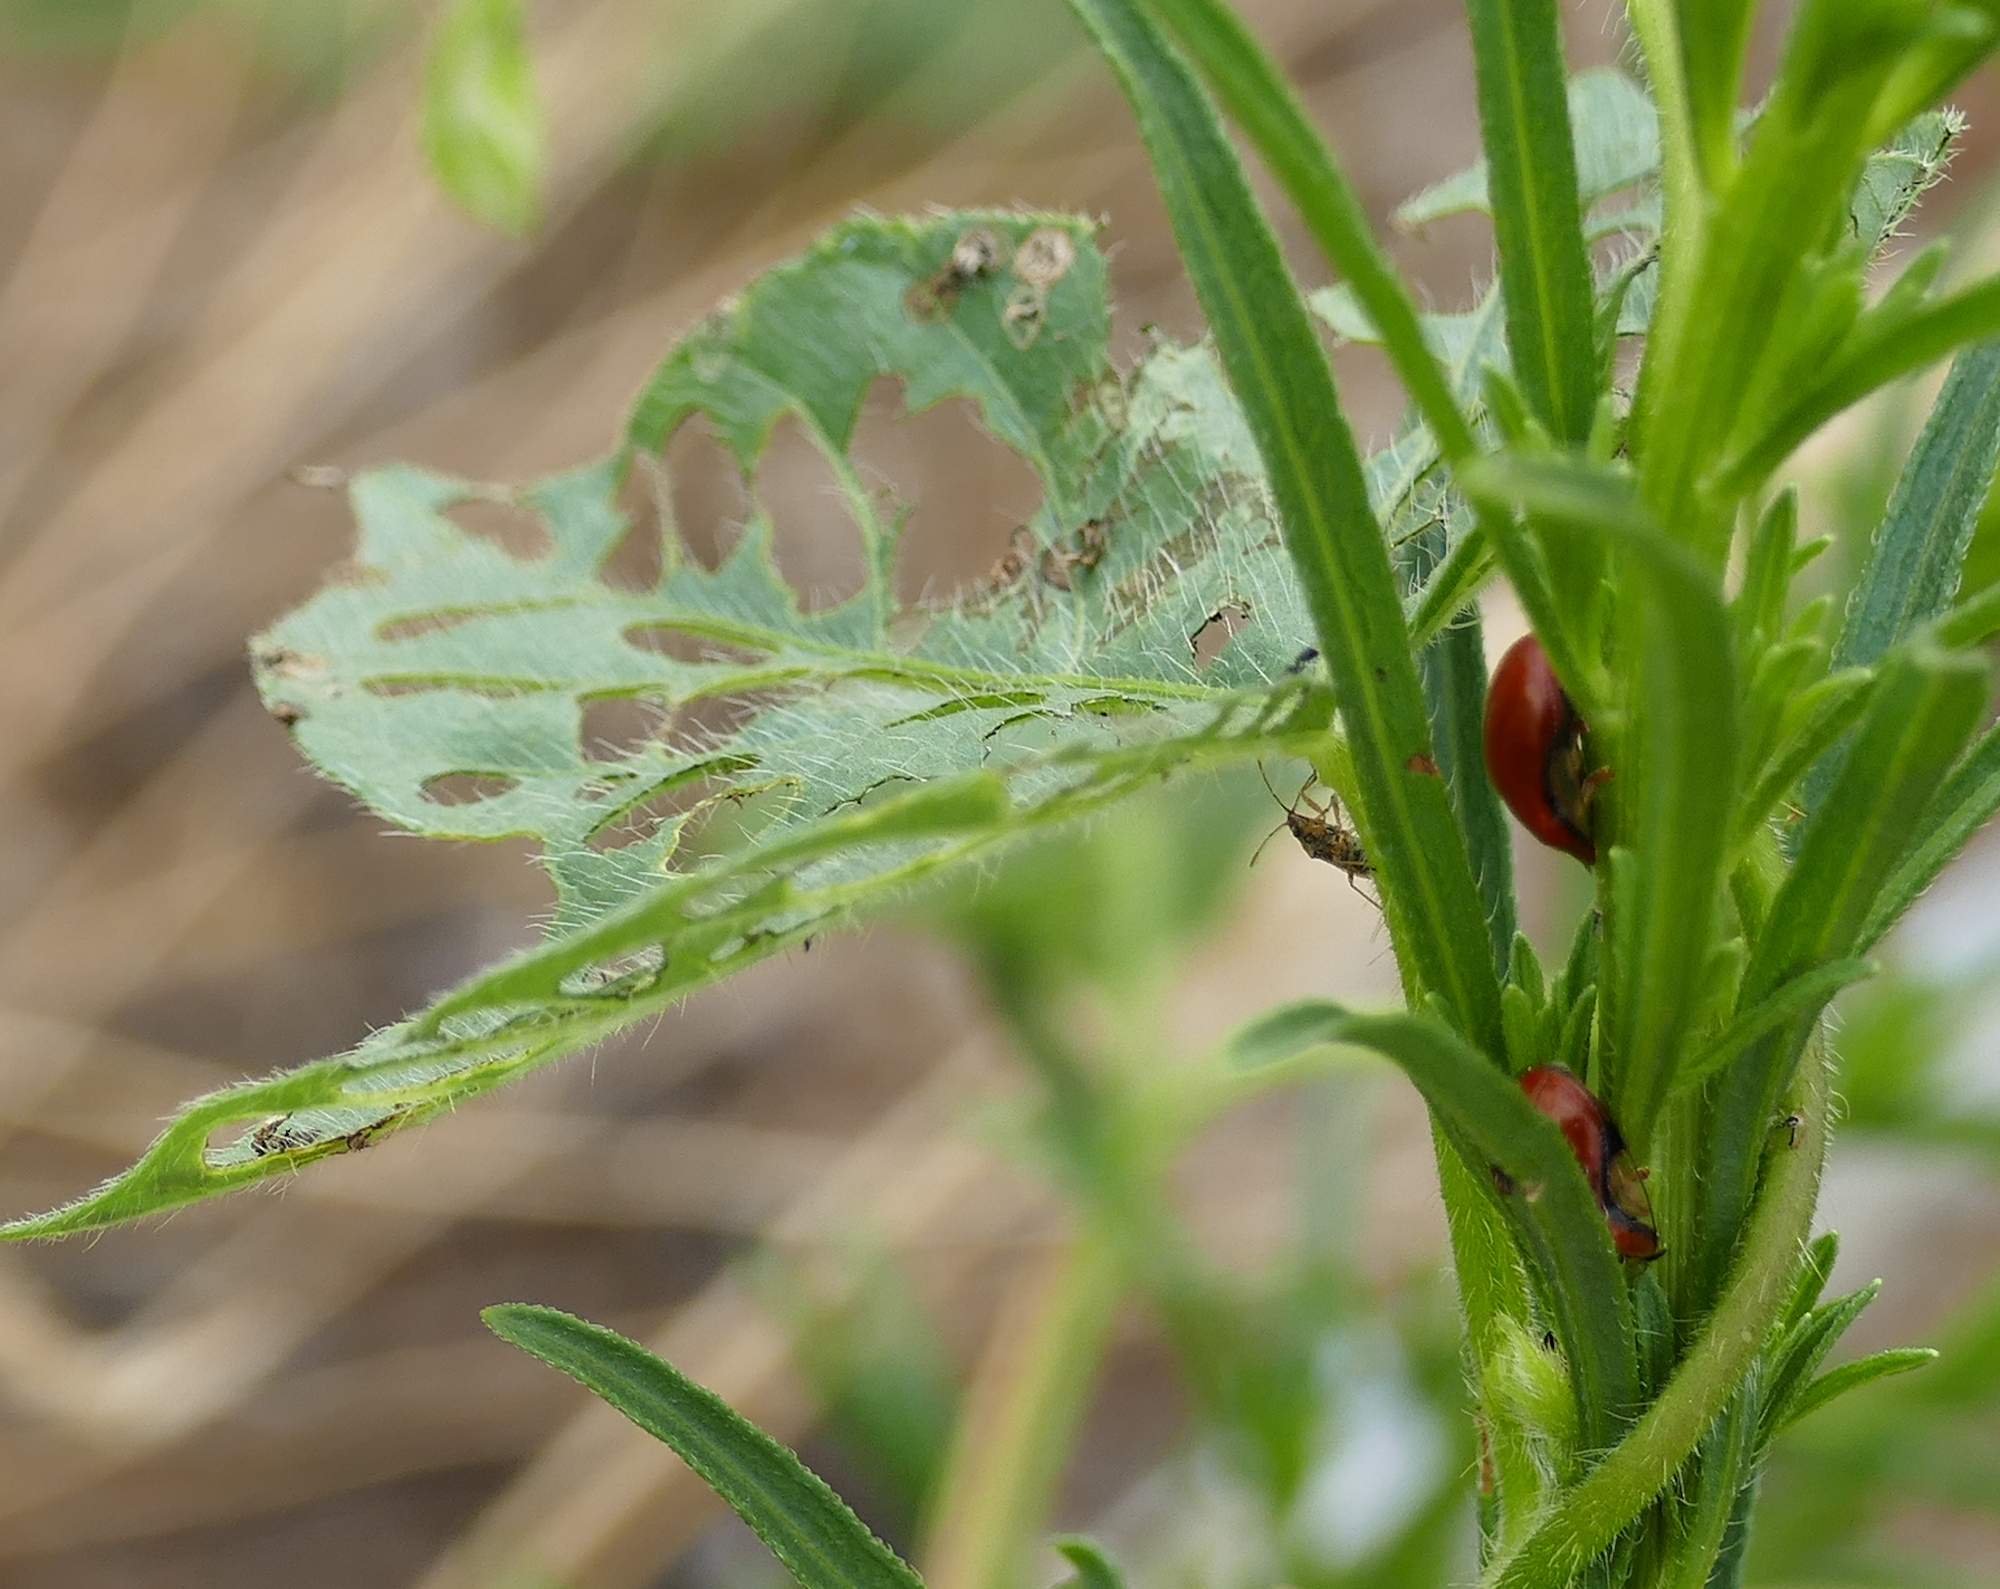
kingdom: Animalia
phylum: Arthropoda
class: Insecta
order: Coleoptera
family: Chrysomelidae
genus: Charidotella
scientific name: Charidotella emarginata
